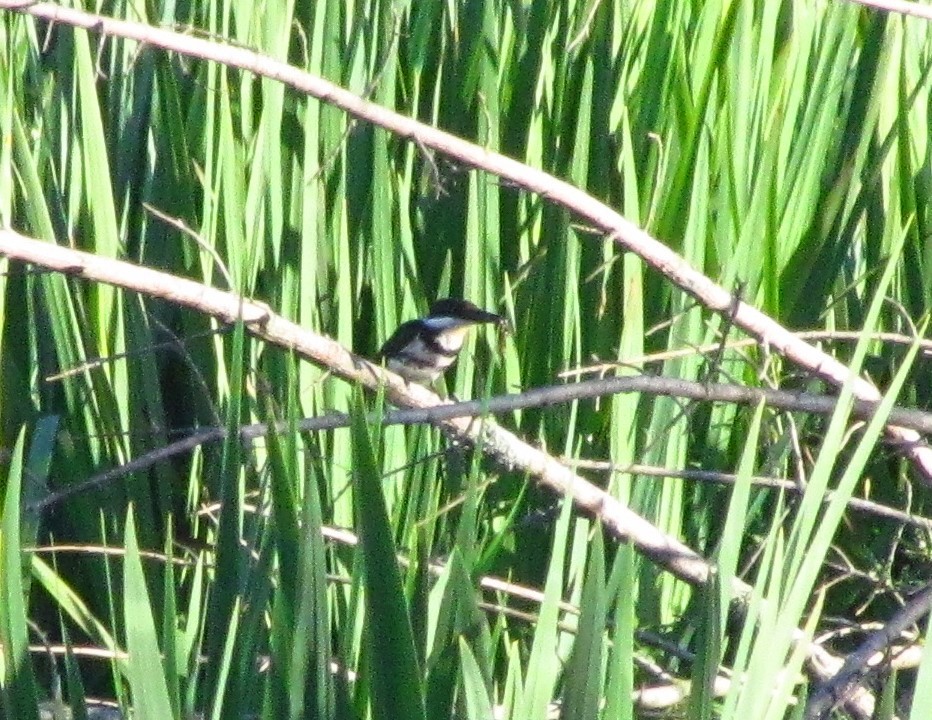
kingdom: Animalia
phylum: Chordata
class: Aves
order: Coraciiformes
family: Alcedinidae
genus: Chloroceryle
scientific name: Chloroceryle americana
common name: Green kingfisher
